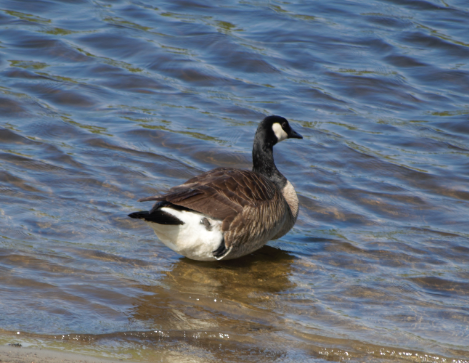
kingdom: Animalia
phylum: Chordata
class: Aves
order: Anseriformes
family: Anatidae
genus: Branta
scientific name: Branta canadensis
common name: Canada goose
